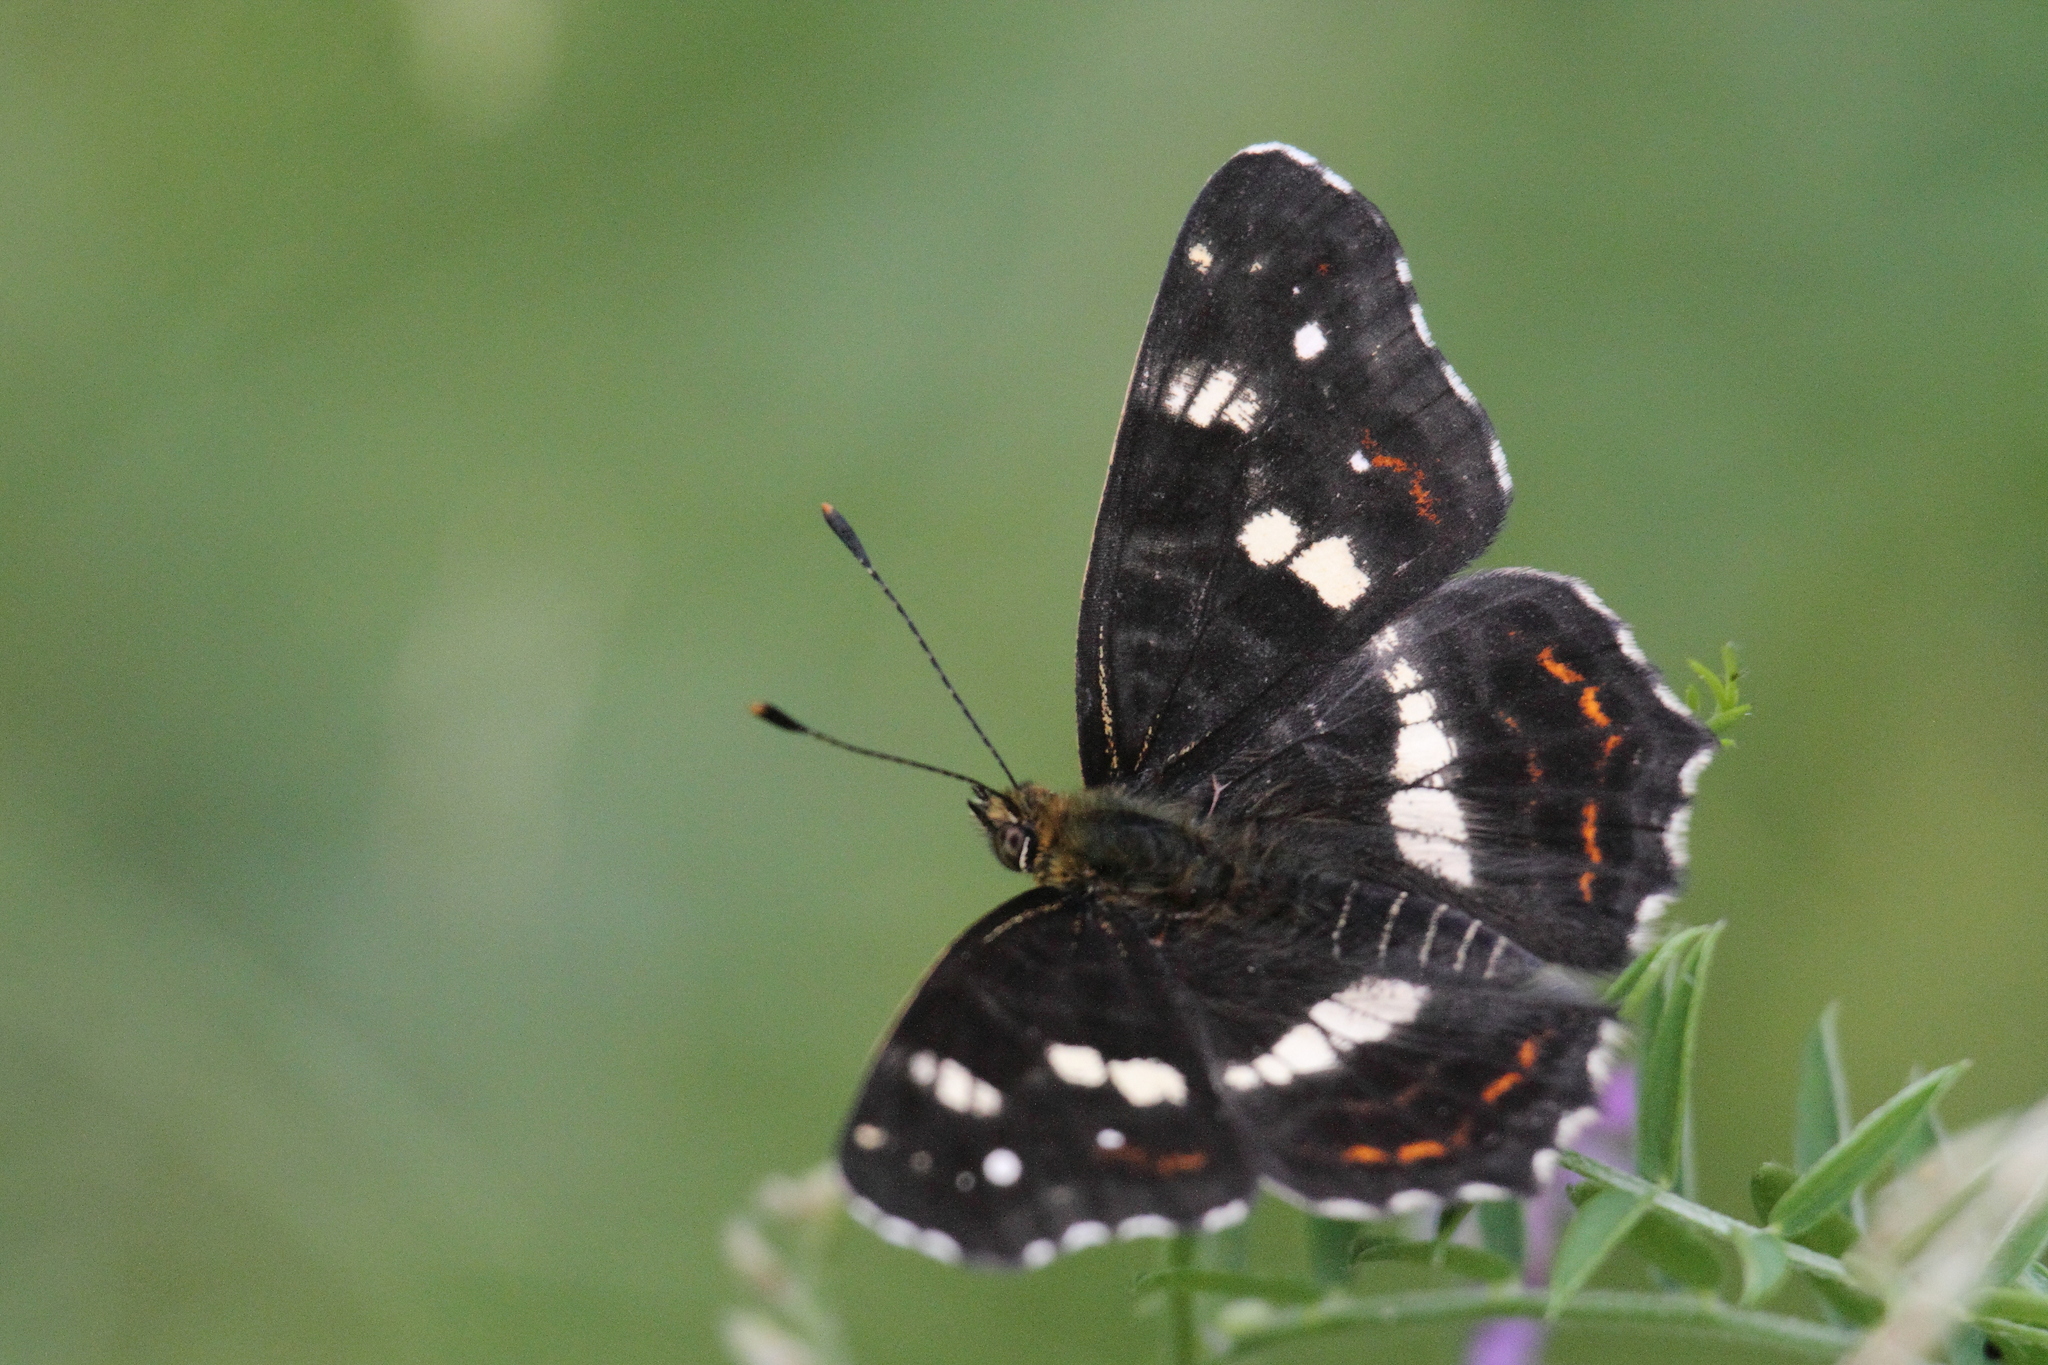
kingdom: Animalia
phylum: Arthropoda
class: Insecta
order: Lepidoptera
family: Nymphalidae
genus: Araschnia
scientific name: Araschnia levana
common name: Map butterfly
